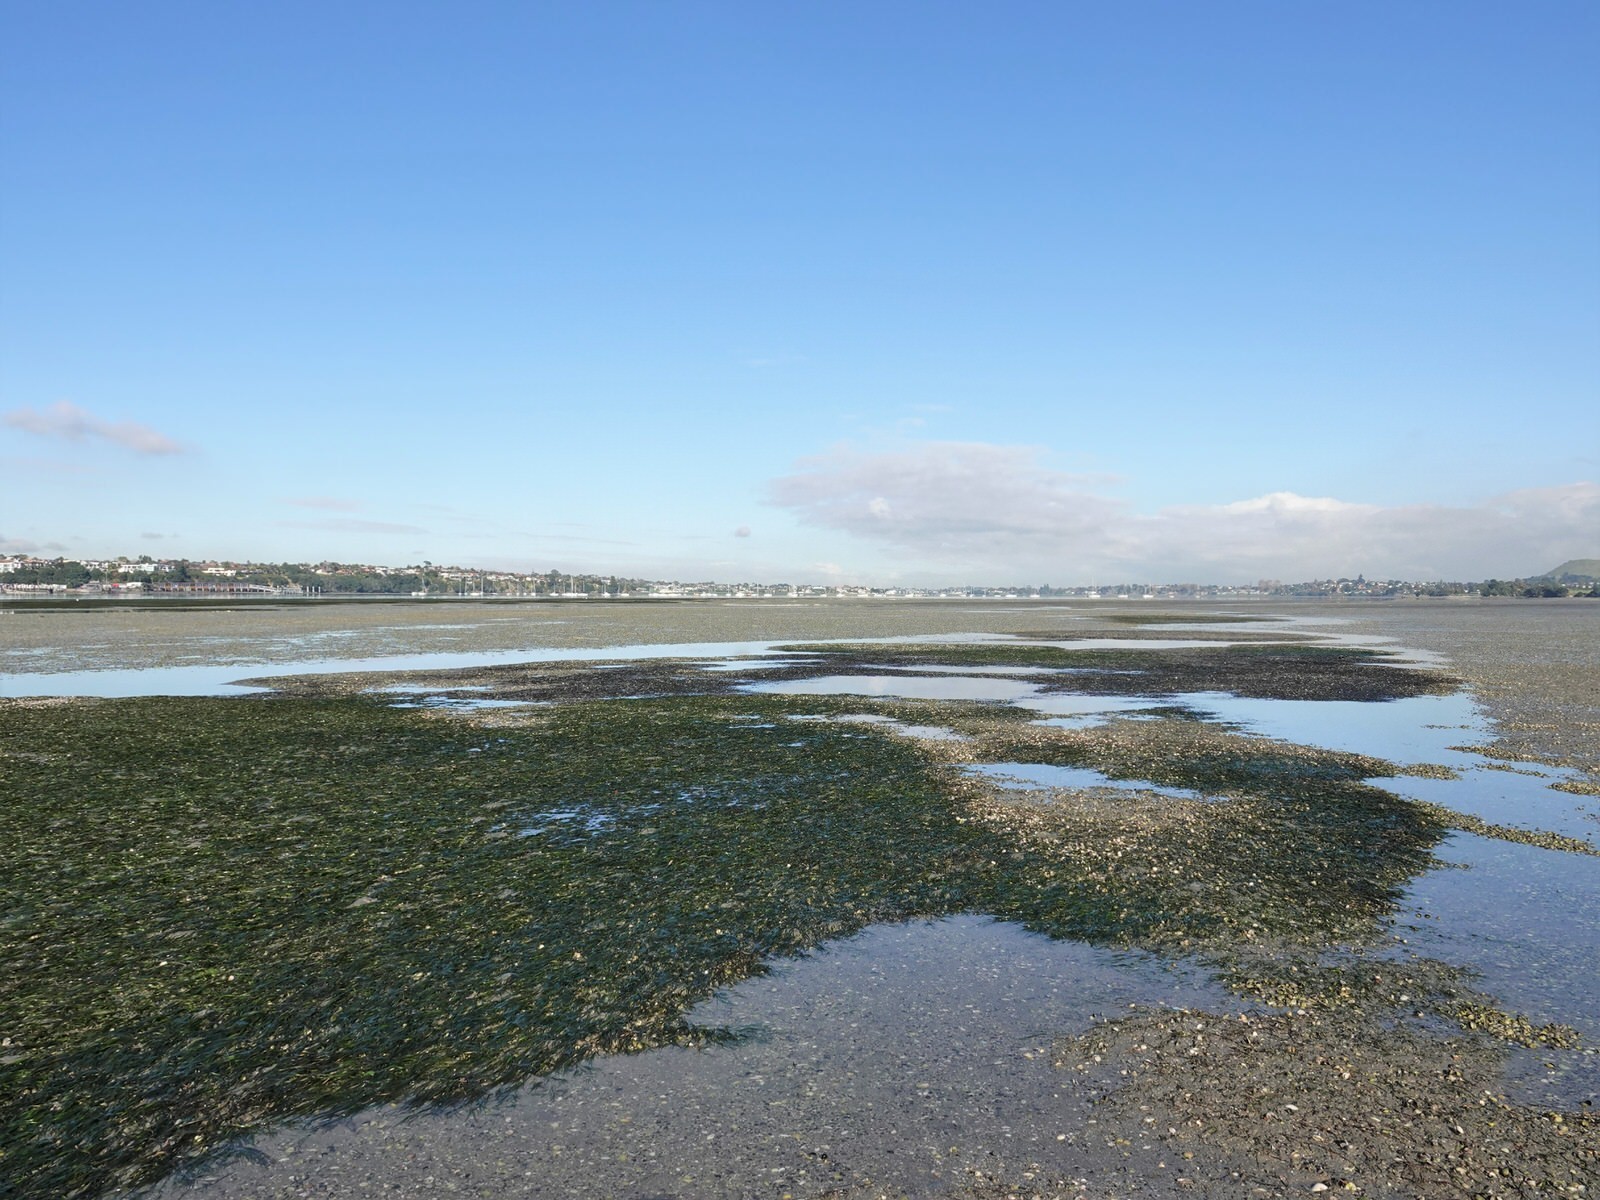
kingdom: Animalia
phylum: Arthropoda
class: Malacostraca
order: Decapoda
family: Varunidae
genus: Hemigrapsus
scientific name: Hemigrapsus crenulatus
